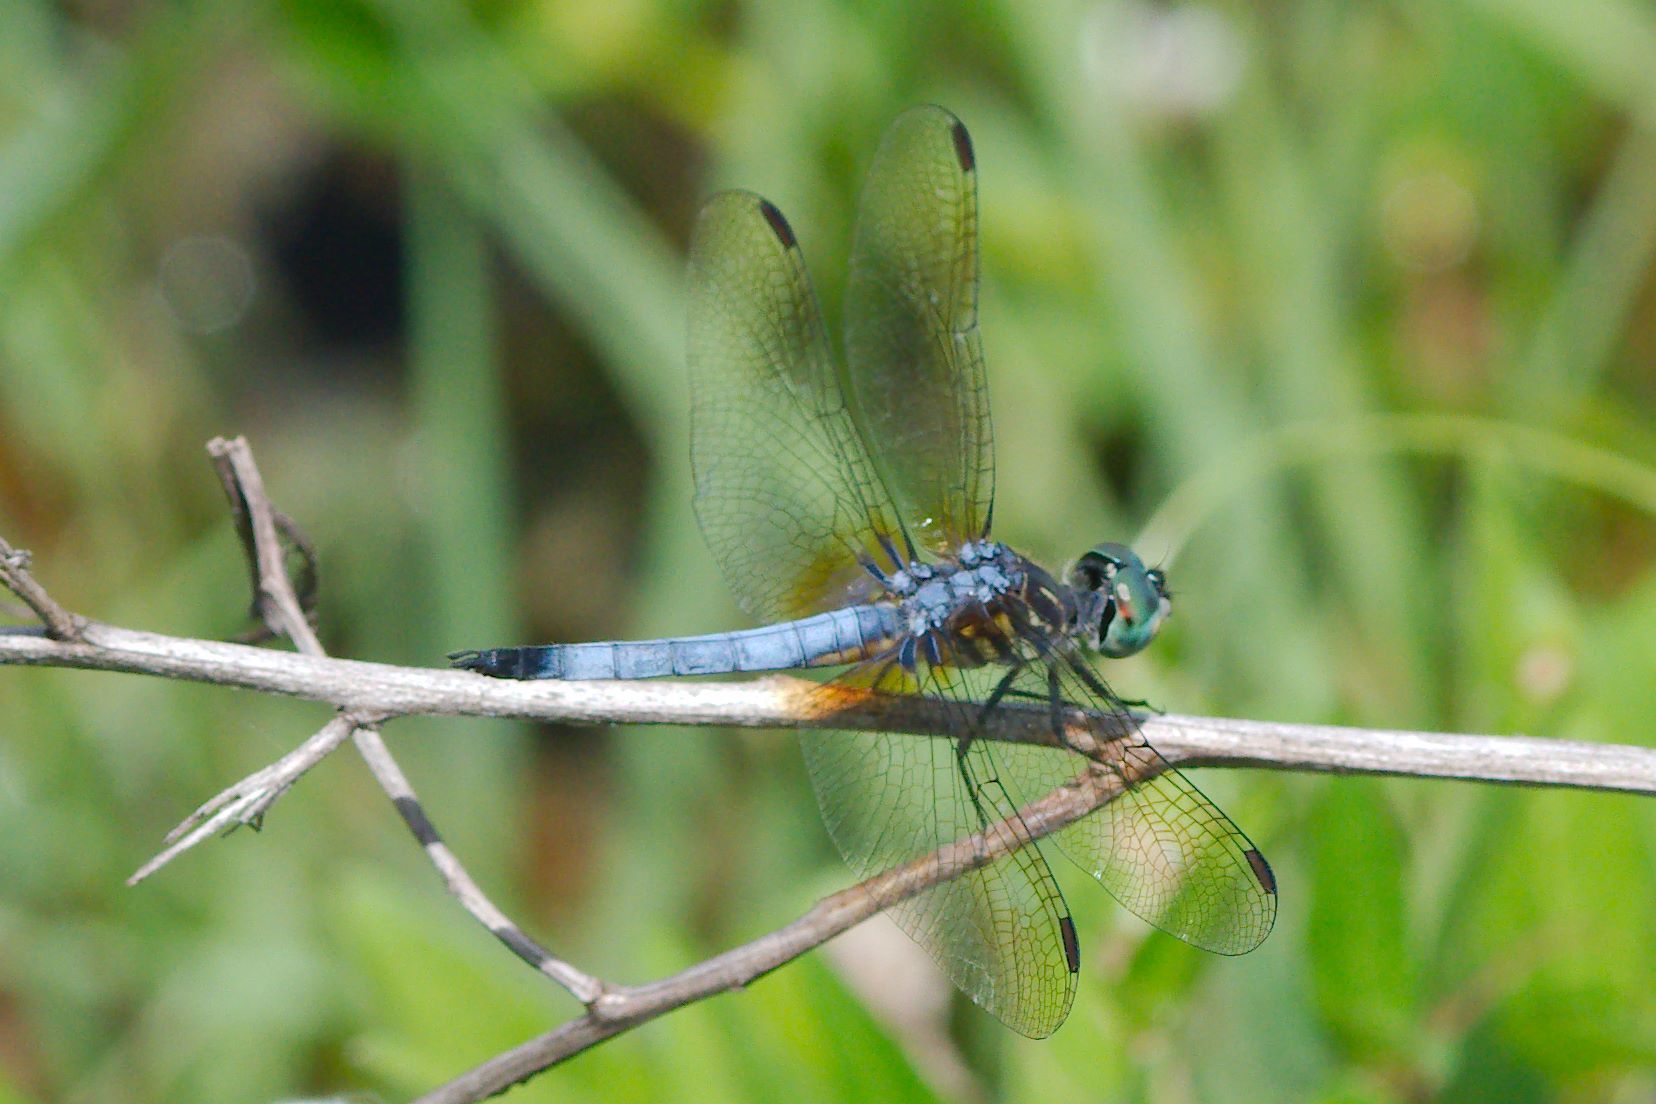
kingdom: Animalia
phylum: Arthropoda
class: Insecta
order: Odonata
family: Libellulidae
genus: Pachydiplax
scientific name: Pachydiplax longipennis
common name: Blue dasher
